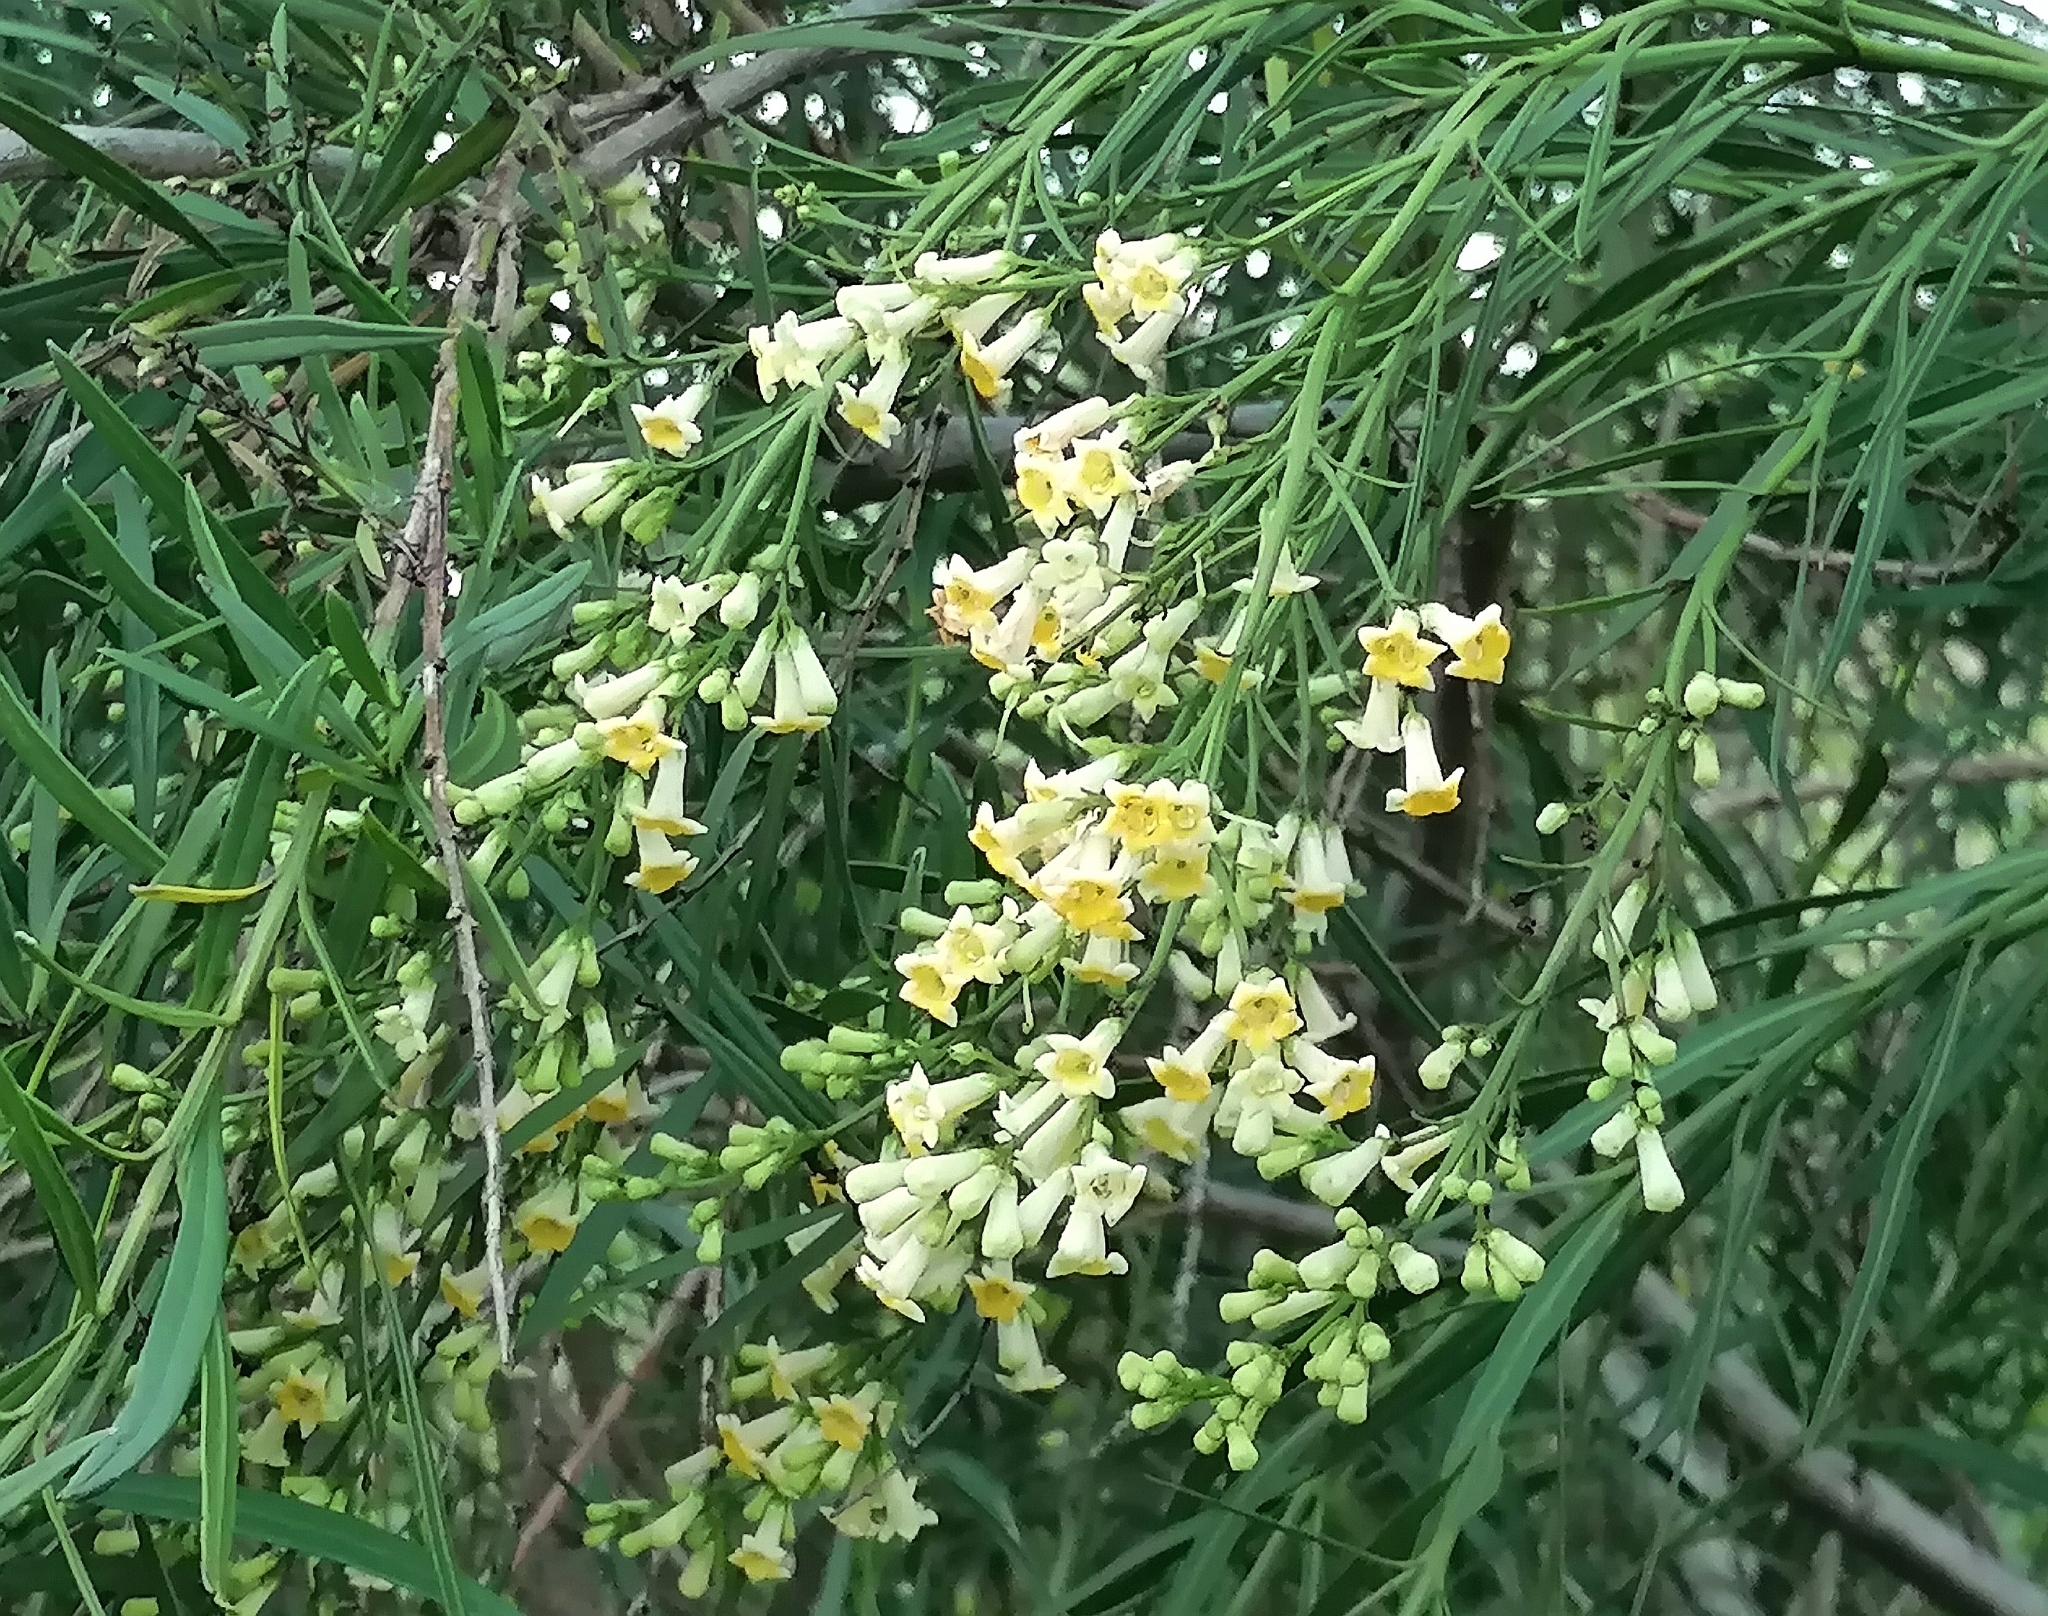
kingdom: Plantae
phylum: Tracheophyta
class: Magnoliopsida
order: Lamiales
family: Scrophulariaceae
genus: Freylinia
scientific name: Freylinia lanceolata
